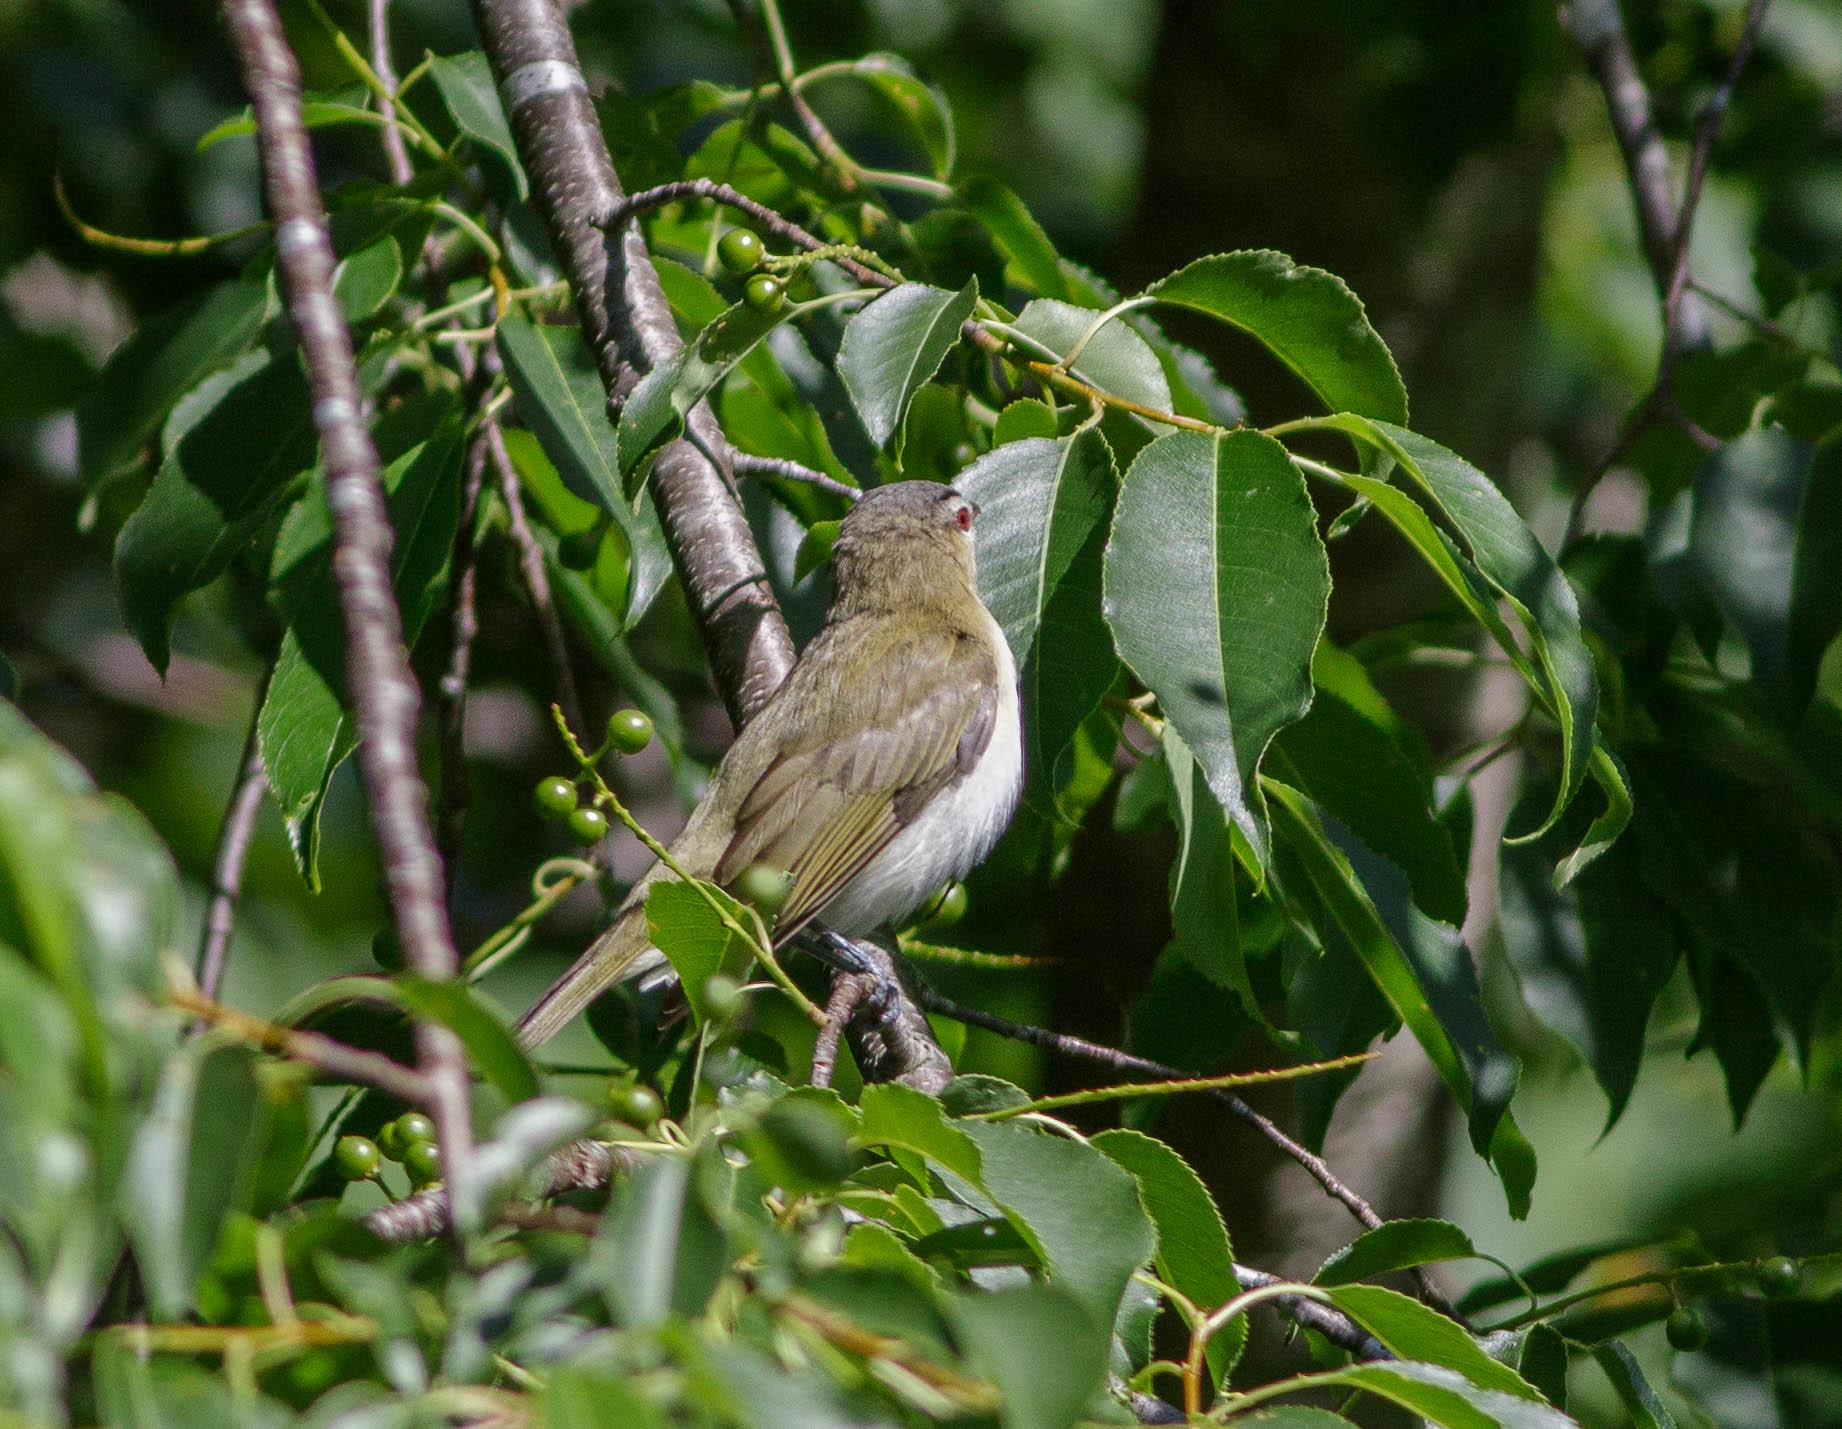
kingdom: Animalia
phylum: Chordata
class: Aves
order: Passeriformes
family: Vireonidae
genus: Vireo
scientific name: Vireo olivaceus
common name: Red-eyed vireo
